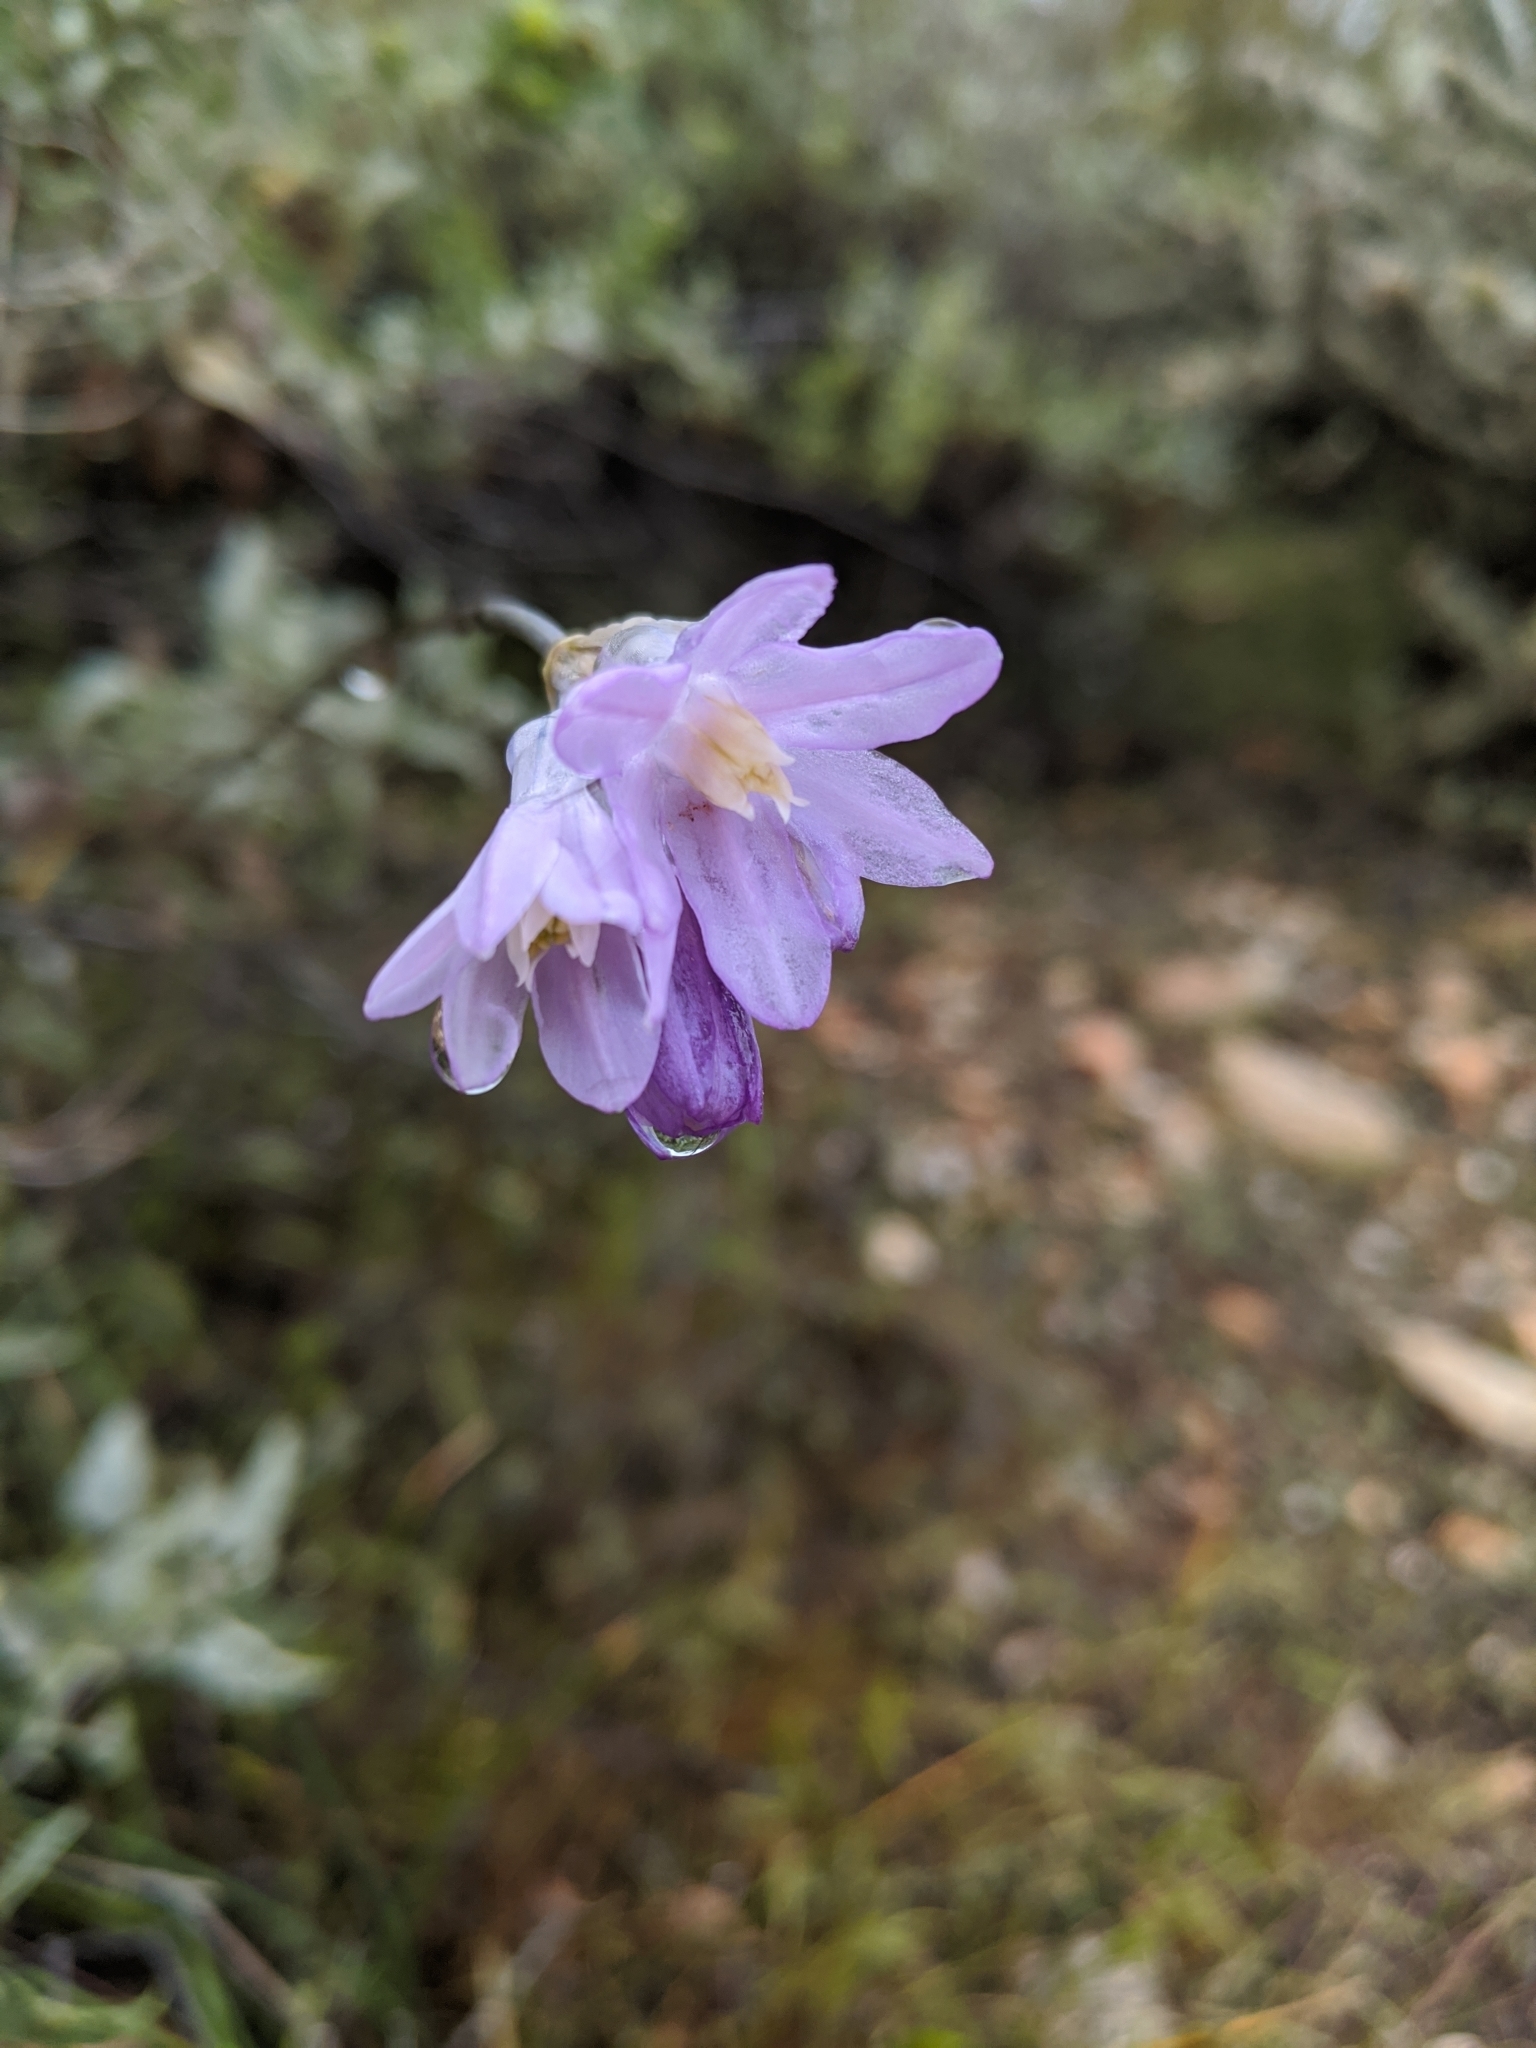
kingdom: Plantae
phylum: Tracheophyta
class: Liliopsida
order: Asparagales
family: Asparagaceae
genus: Dipterostemon
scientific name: Dipterostemon capitatus
